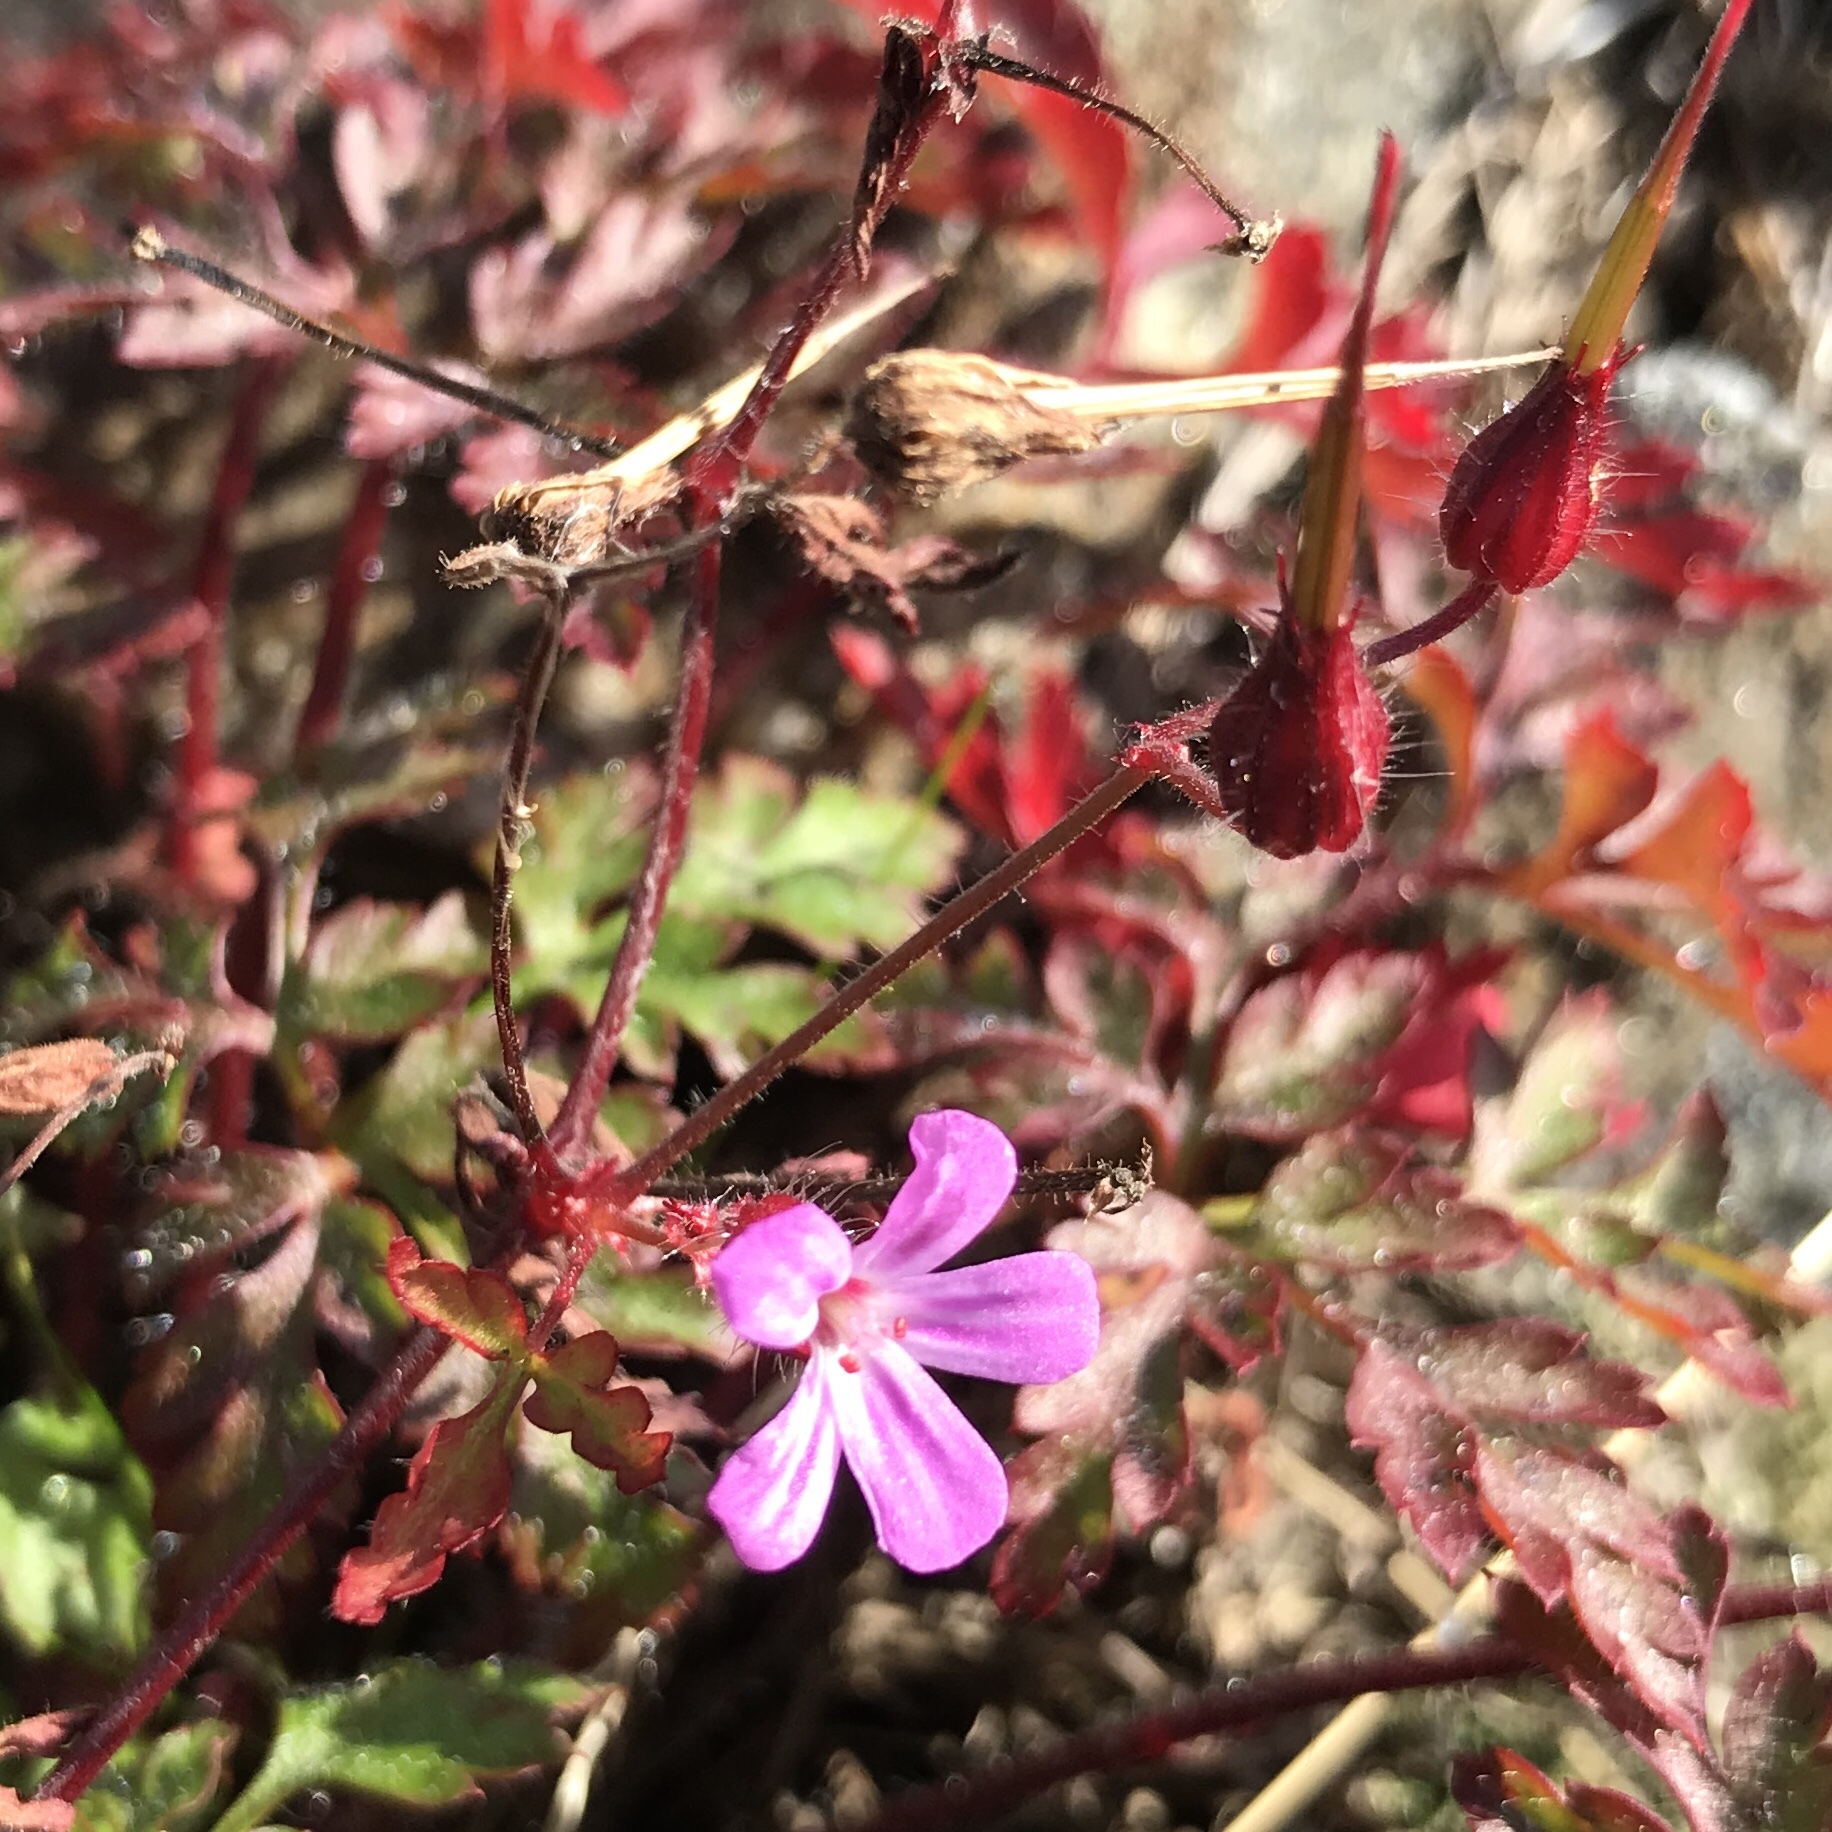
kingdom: Plantae
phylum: Tracheophyta
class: Magnoliopsida
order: Geraniales
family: Geraniaceae
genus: Geranium
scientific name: Geranium robertianum
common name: Herb-robert
